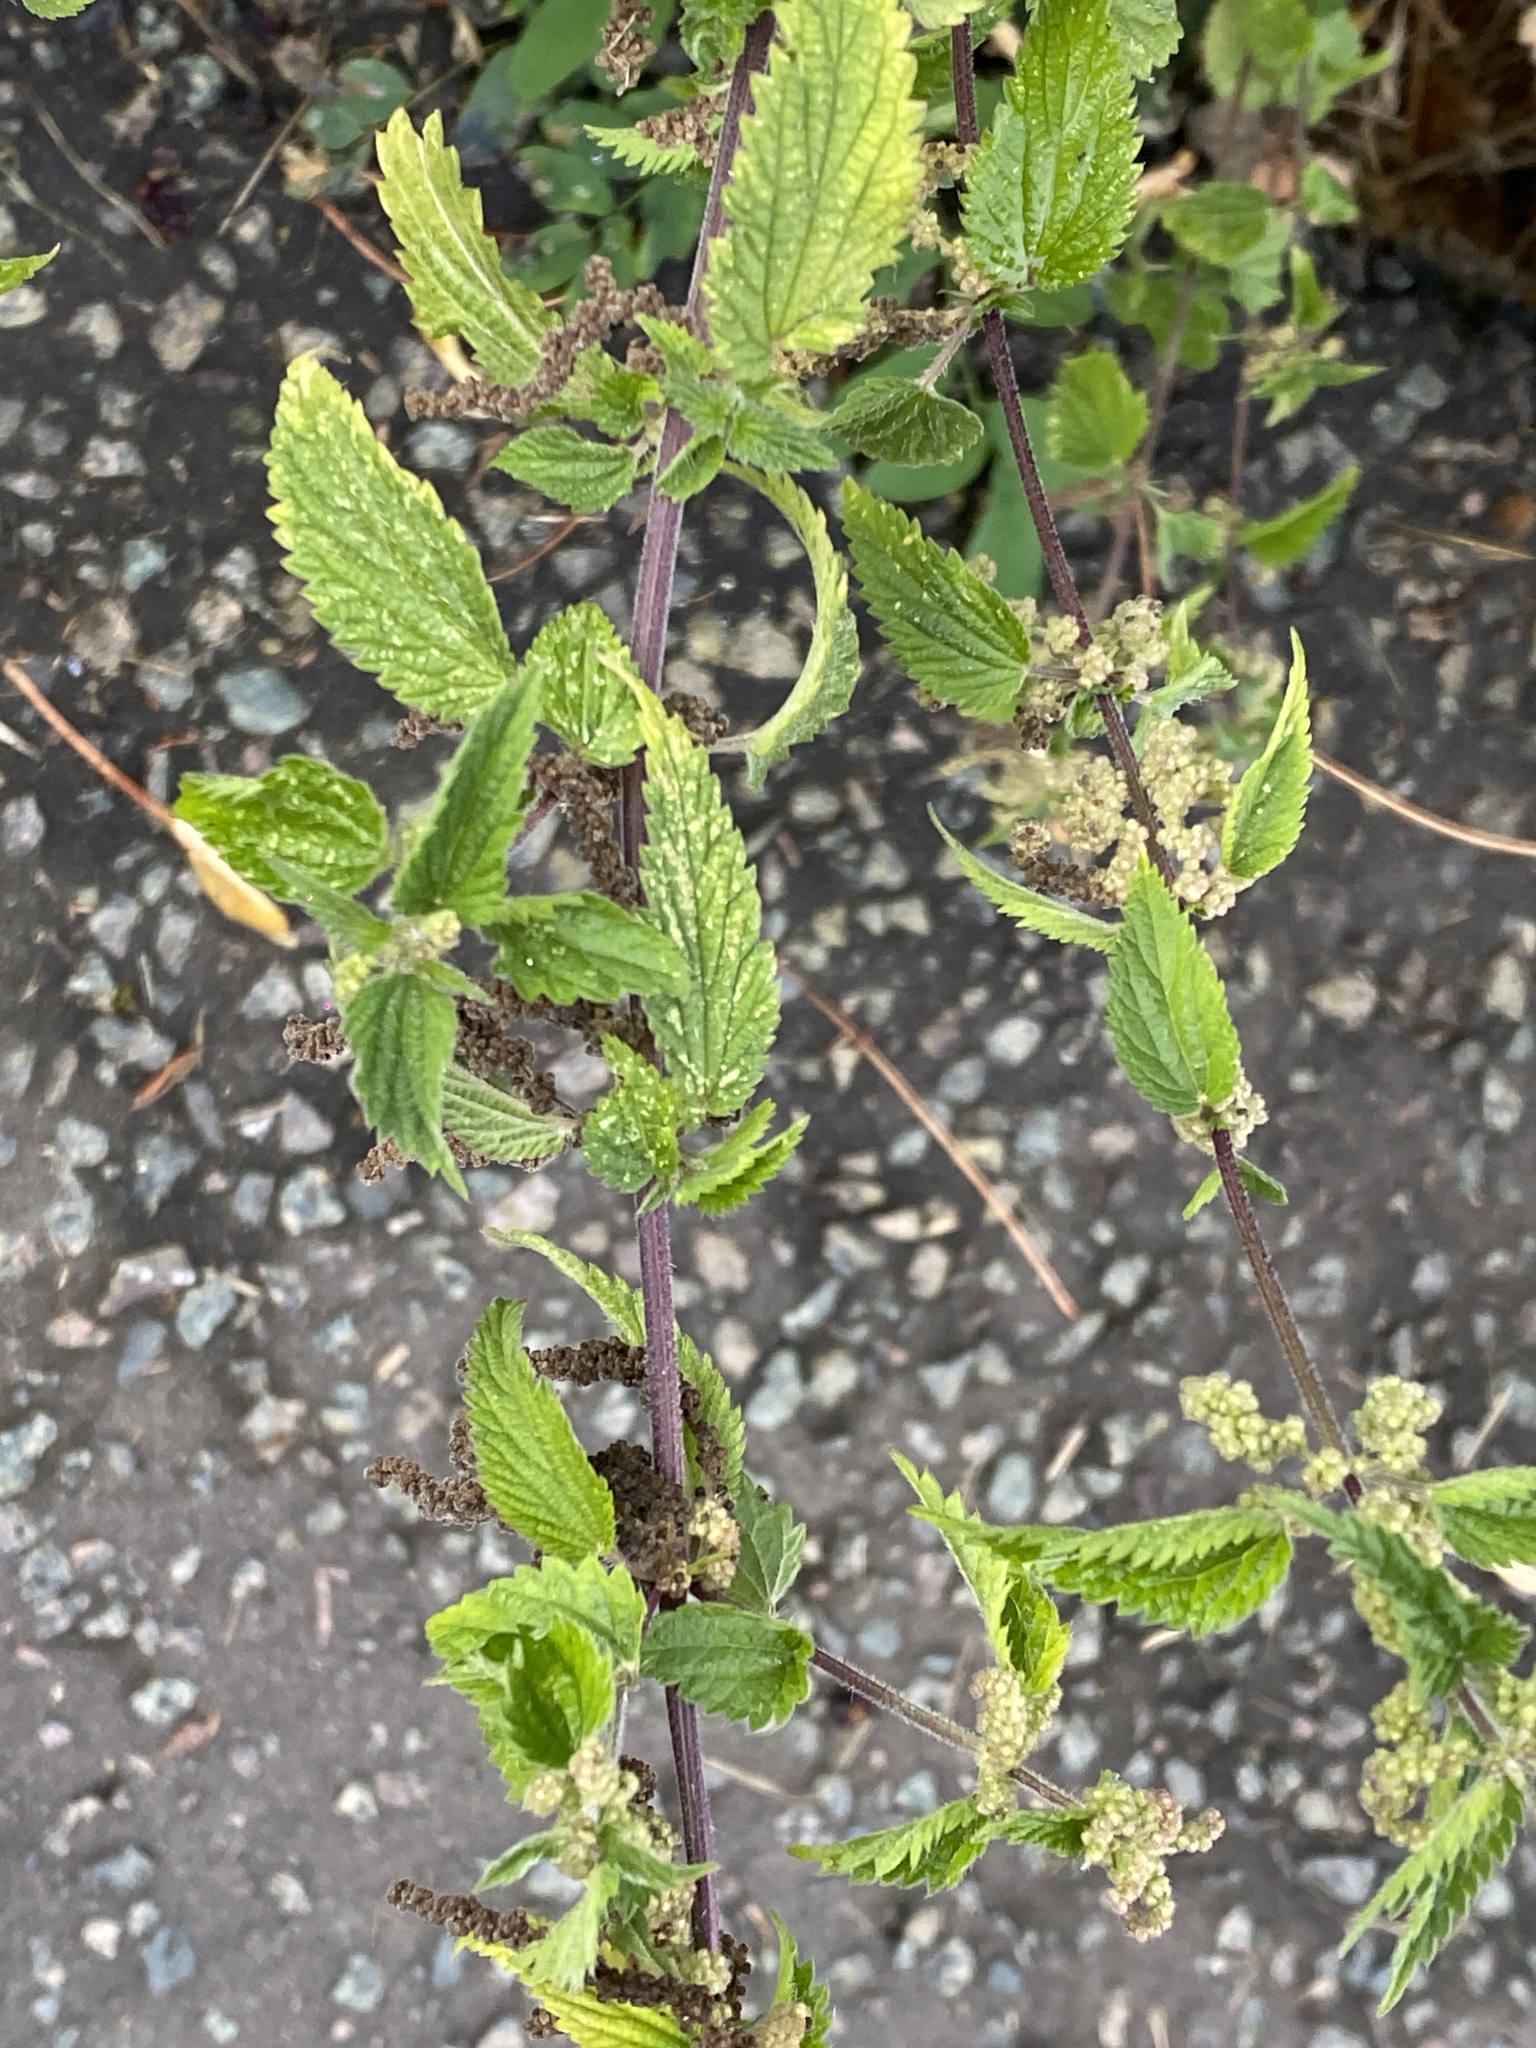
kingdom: Plantae
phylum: Tracheophyta
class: Magnoliopsida
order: Rosales
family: Urticaceae
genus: Urtica
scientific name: Urtica dioica
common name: Common nettle
